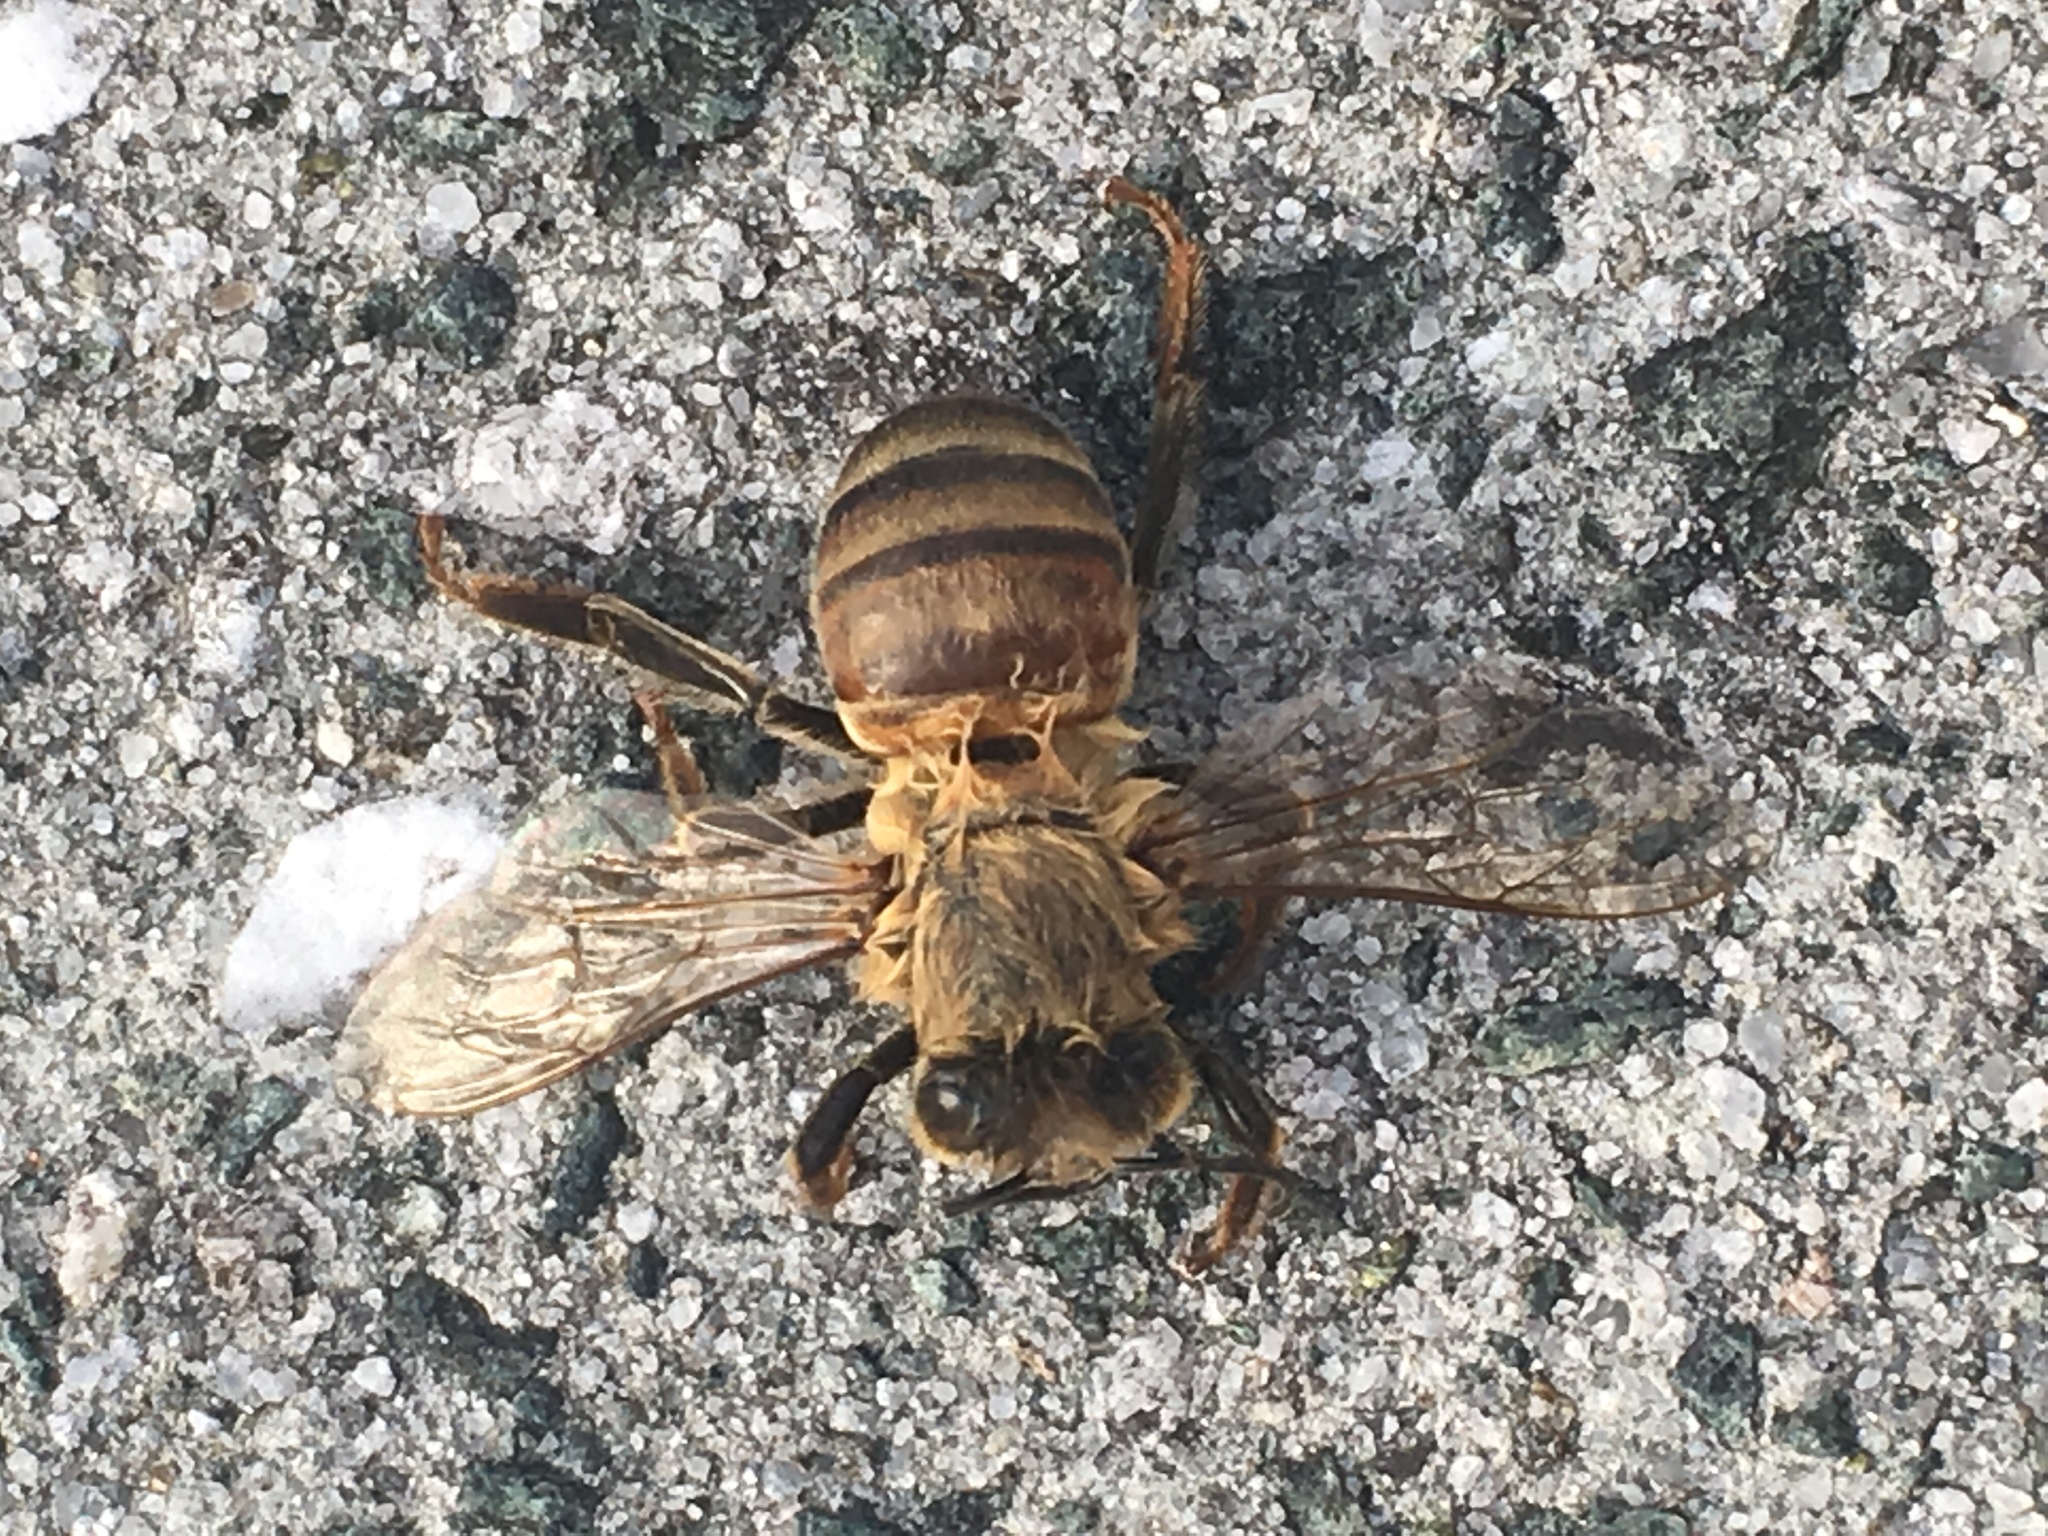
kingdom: Animalia
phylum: Arthropoda
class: Insecta
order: Hymenoptera
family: Apidae
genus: Apis
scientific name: Apis mellifera
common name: Honey bee
